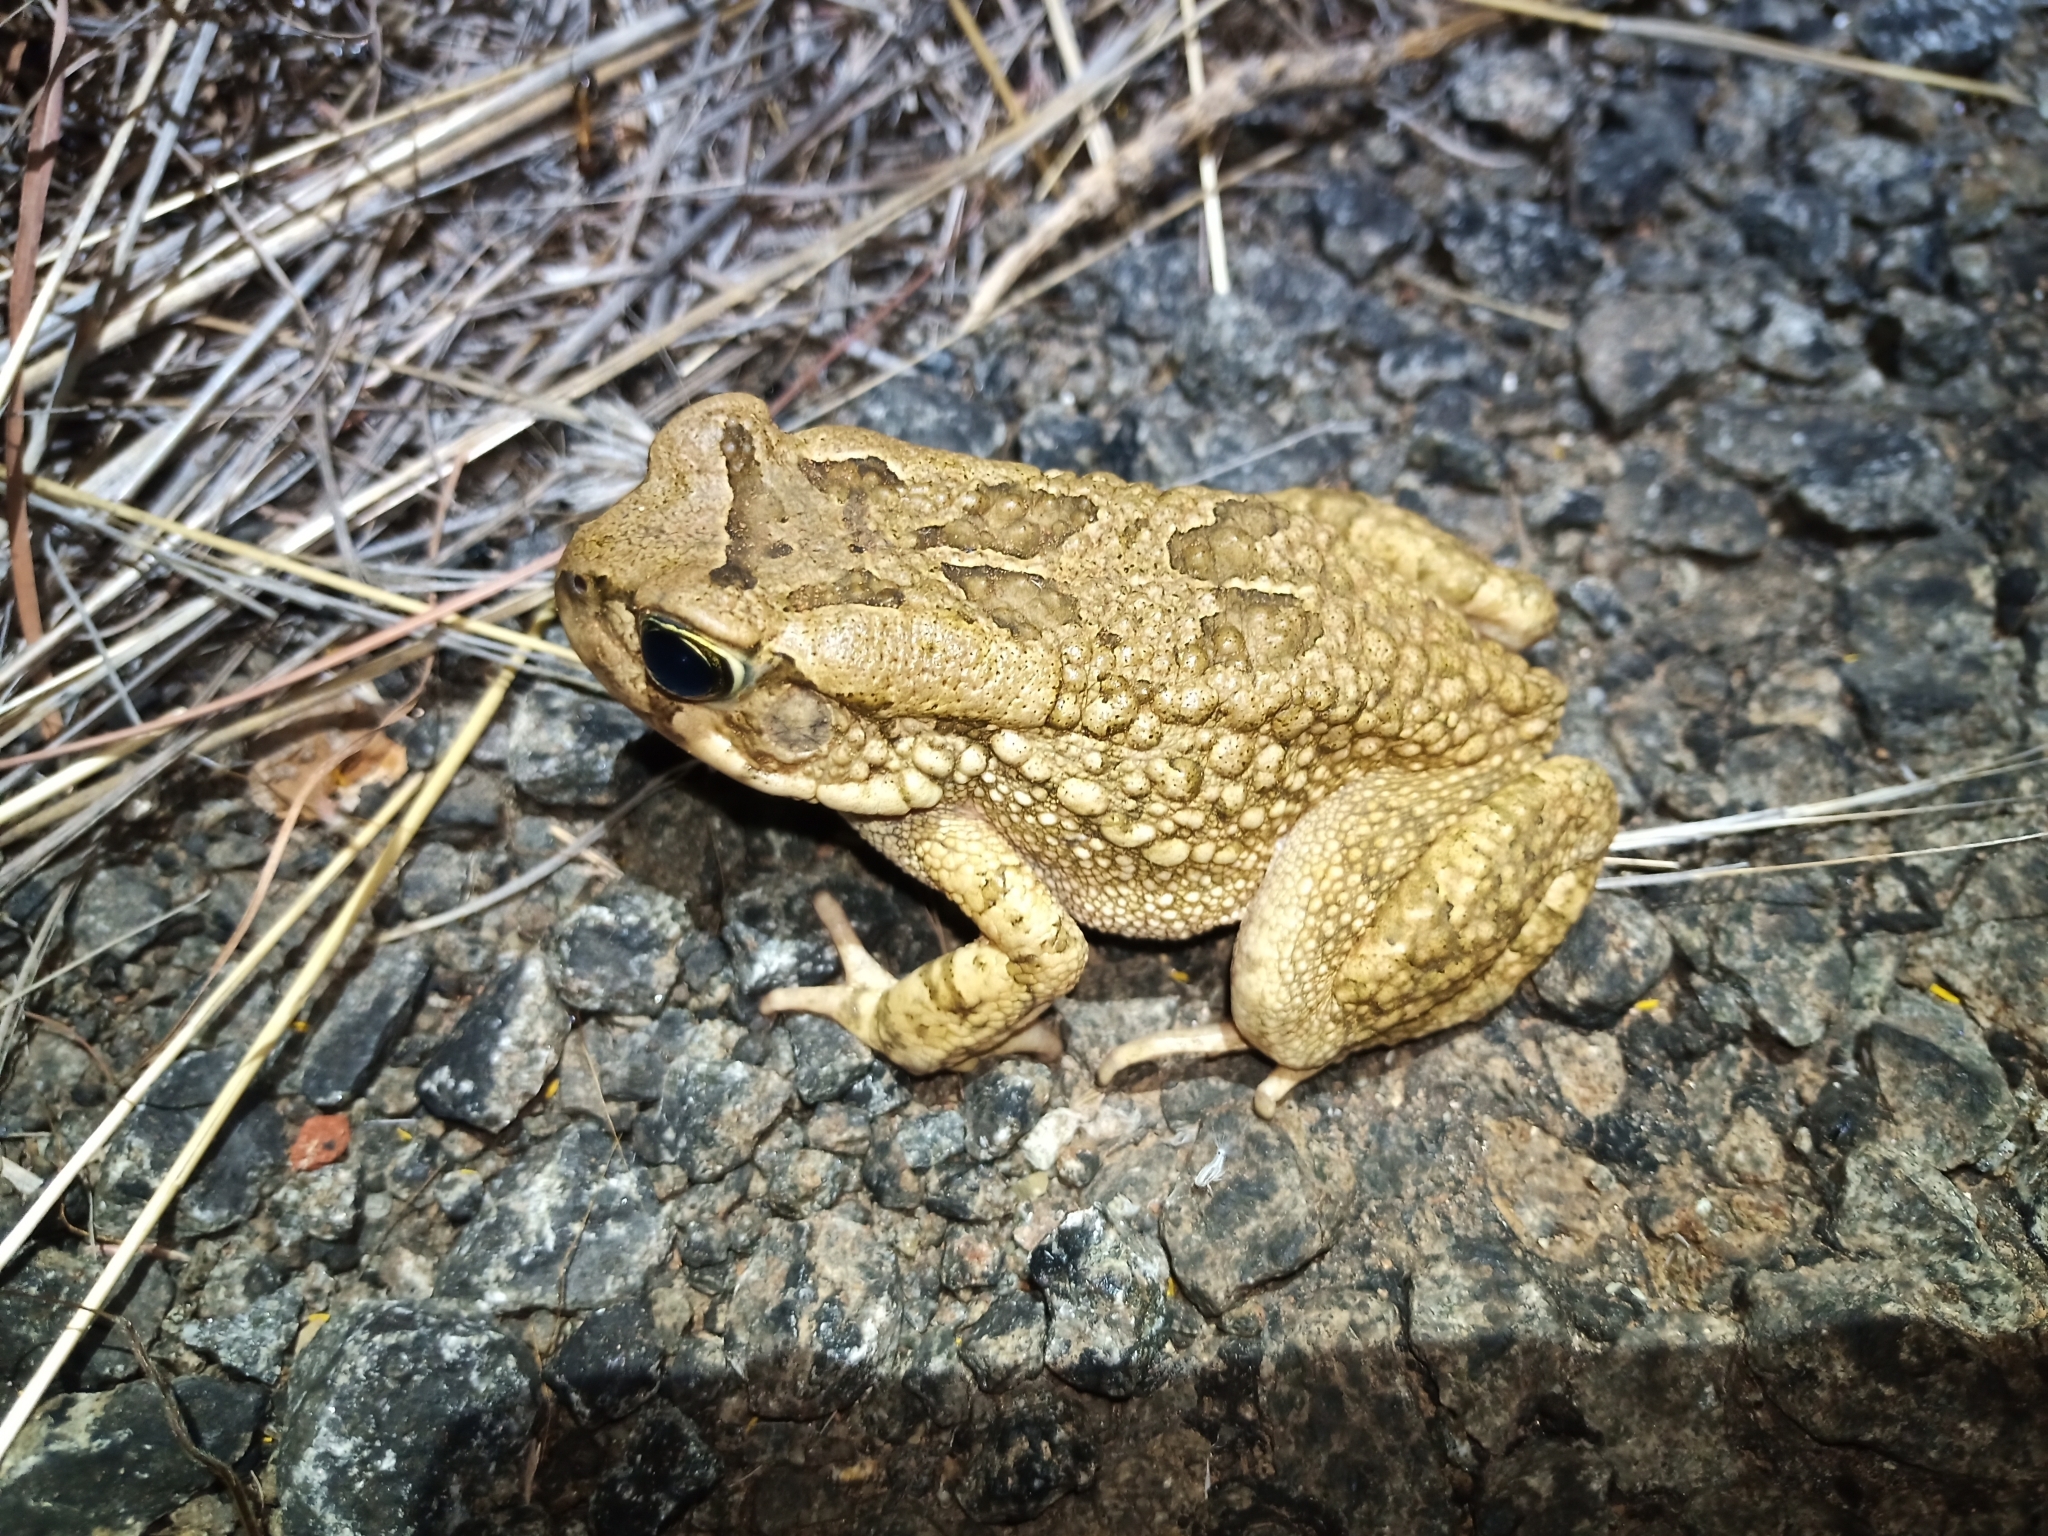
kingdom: Animalia
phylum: Chordata
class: Amphibia
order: Anura
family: Bufonidae
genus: Sclerophrys
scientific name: Sclerophrys capensis
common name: Ranger’s toad
